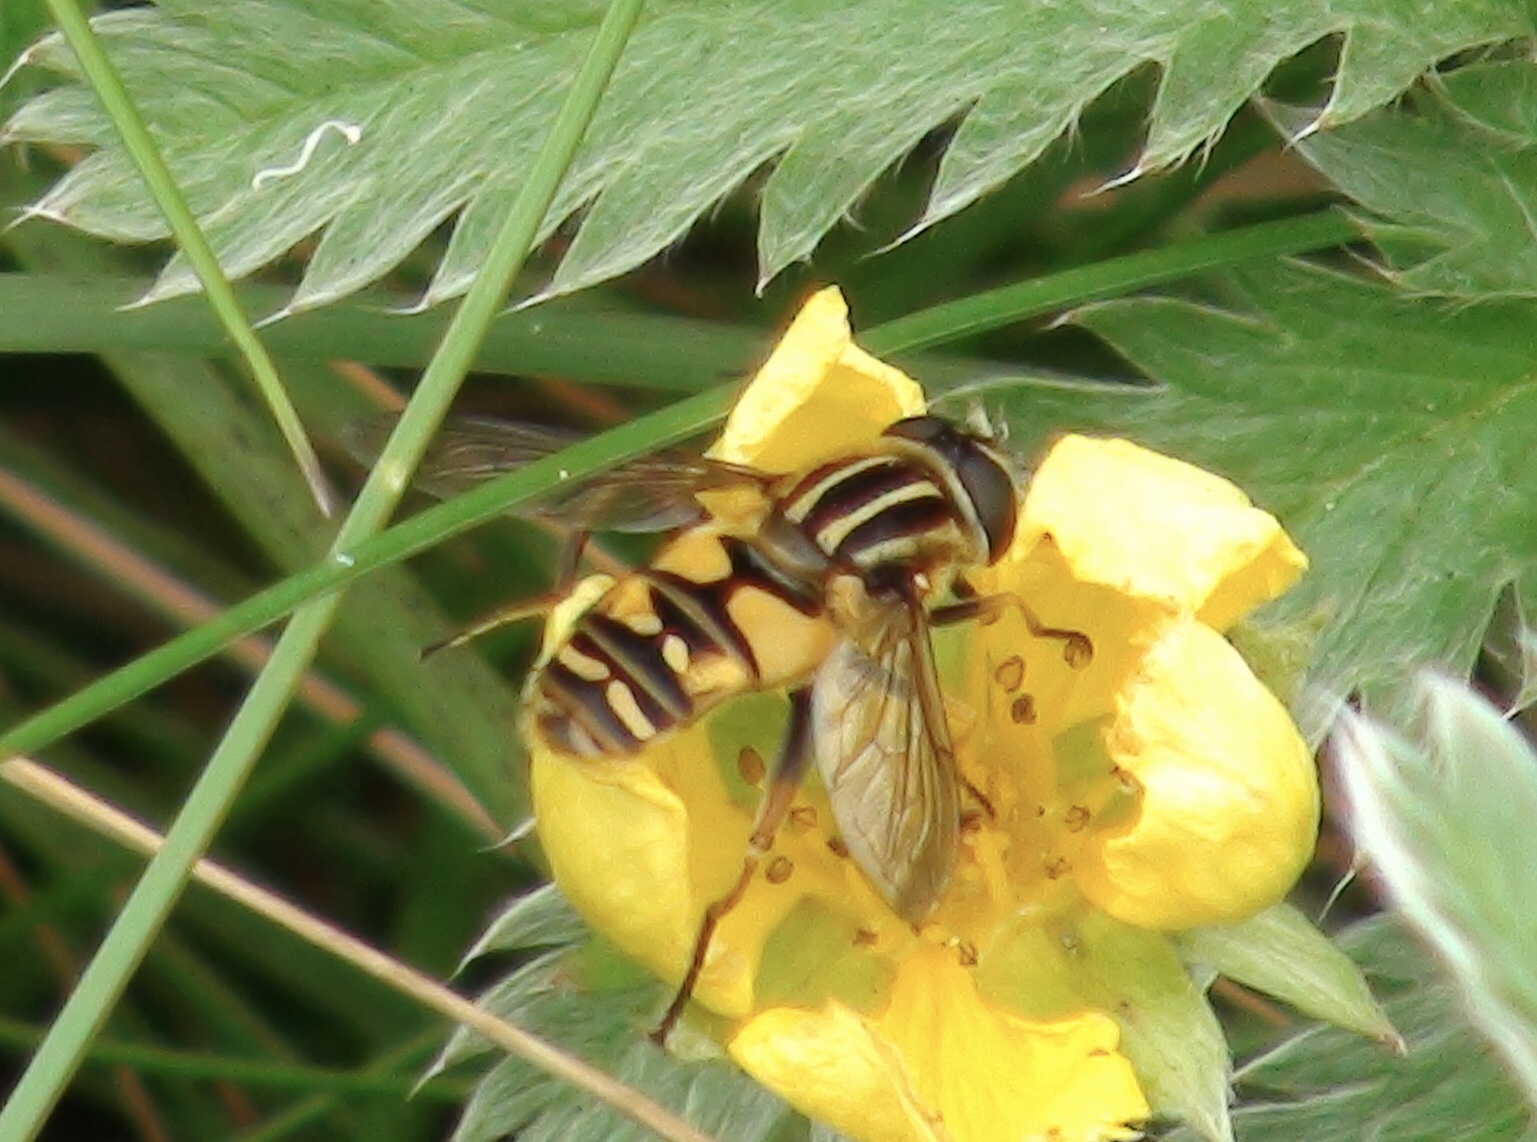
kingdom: Animalia
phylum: Arthropoda
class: Insecta
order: Diptera
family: Syrphidae
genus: Helophilus
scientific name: Helophilus pendulus
